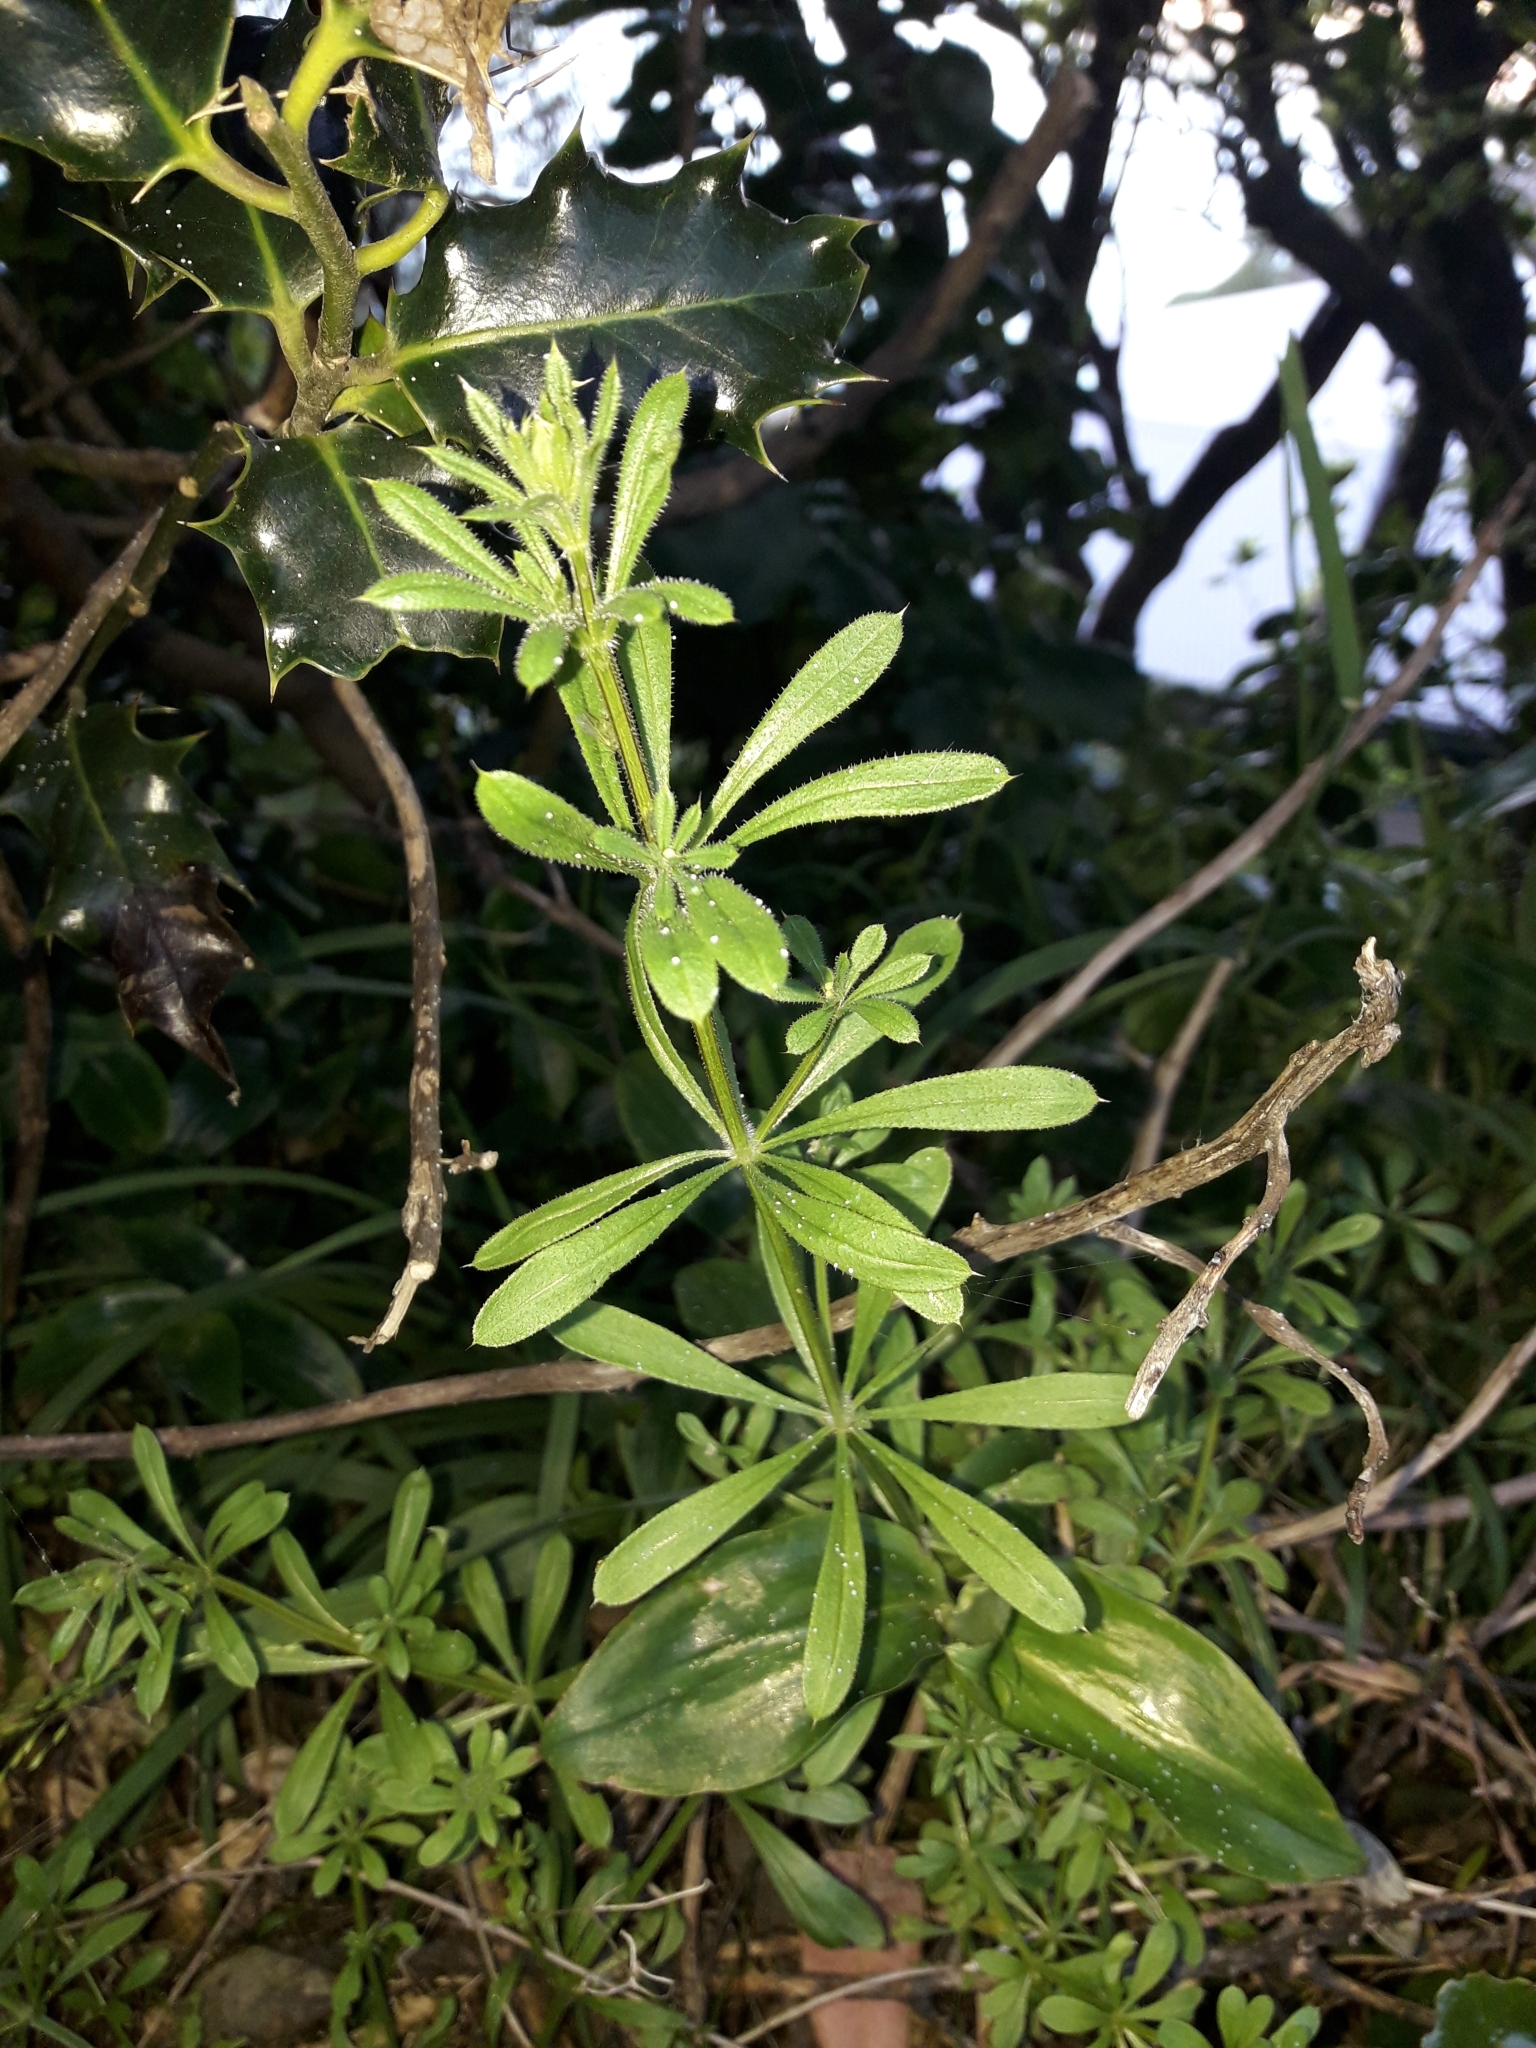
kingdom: Plantae
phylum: Tracheophyta
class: Magnoliopsida
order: Gentianales
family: Rubiaceae
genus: Galium
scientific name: Galium aparine
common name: Cleavers
